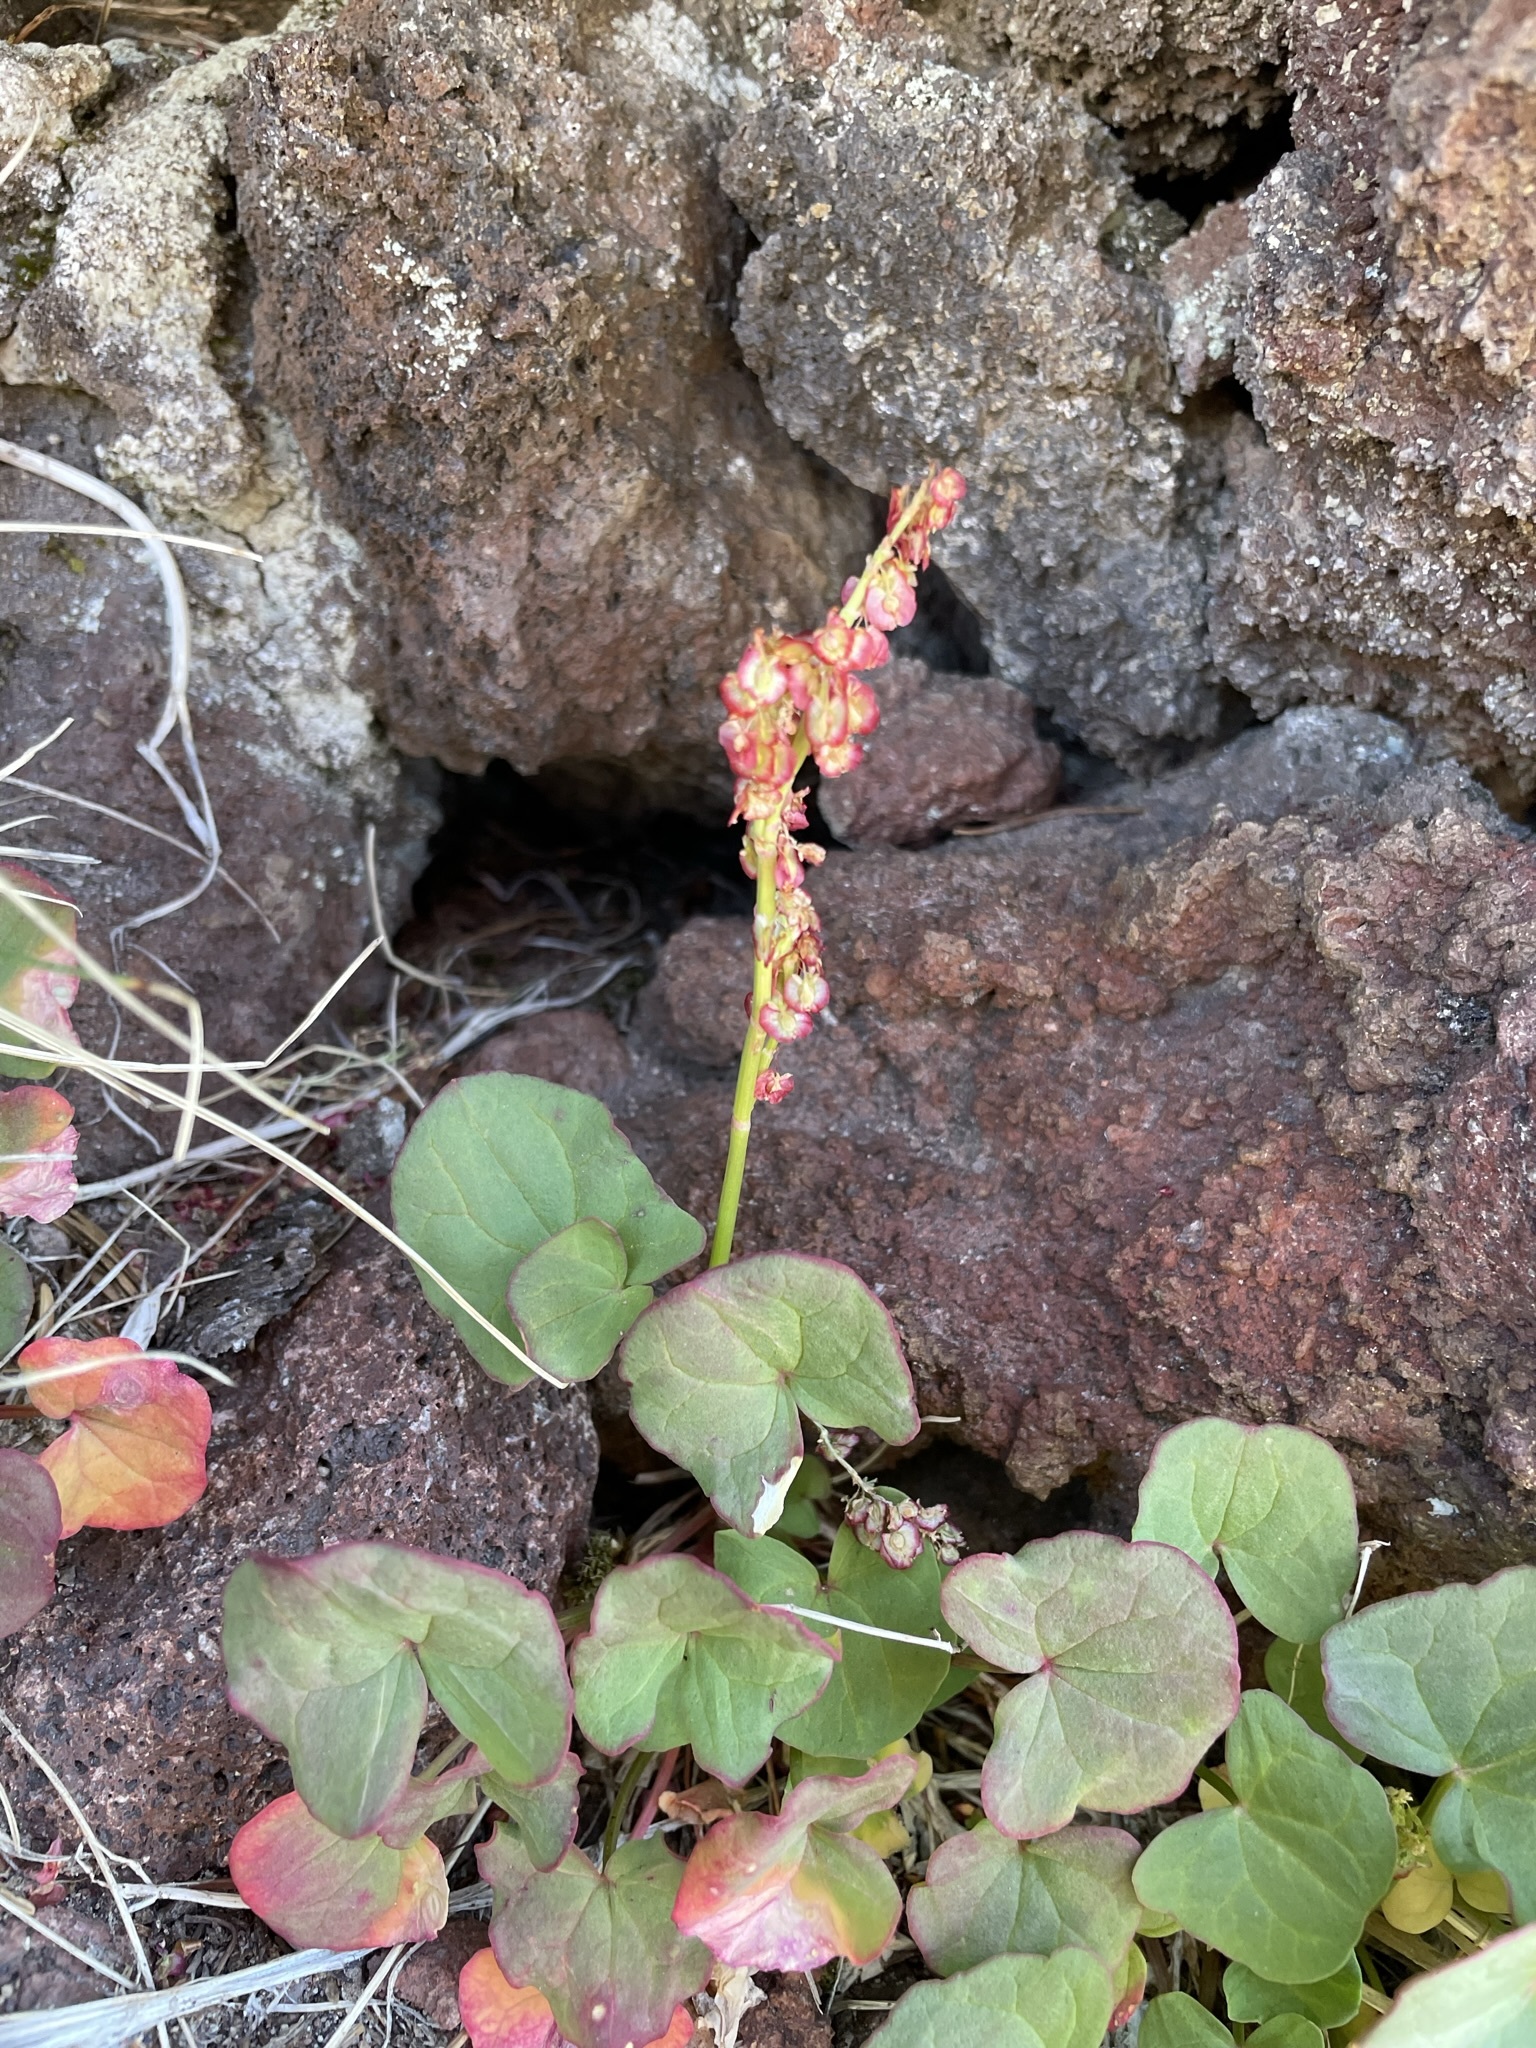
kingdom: Plantae
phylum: Tracheophyta
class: Magnoliopsida
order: Caryophyllales
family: Polygonaceae
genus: Oxyria
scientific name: Oxyria digyna
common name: Alpine mountain-sorrel
